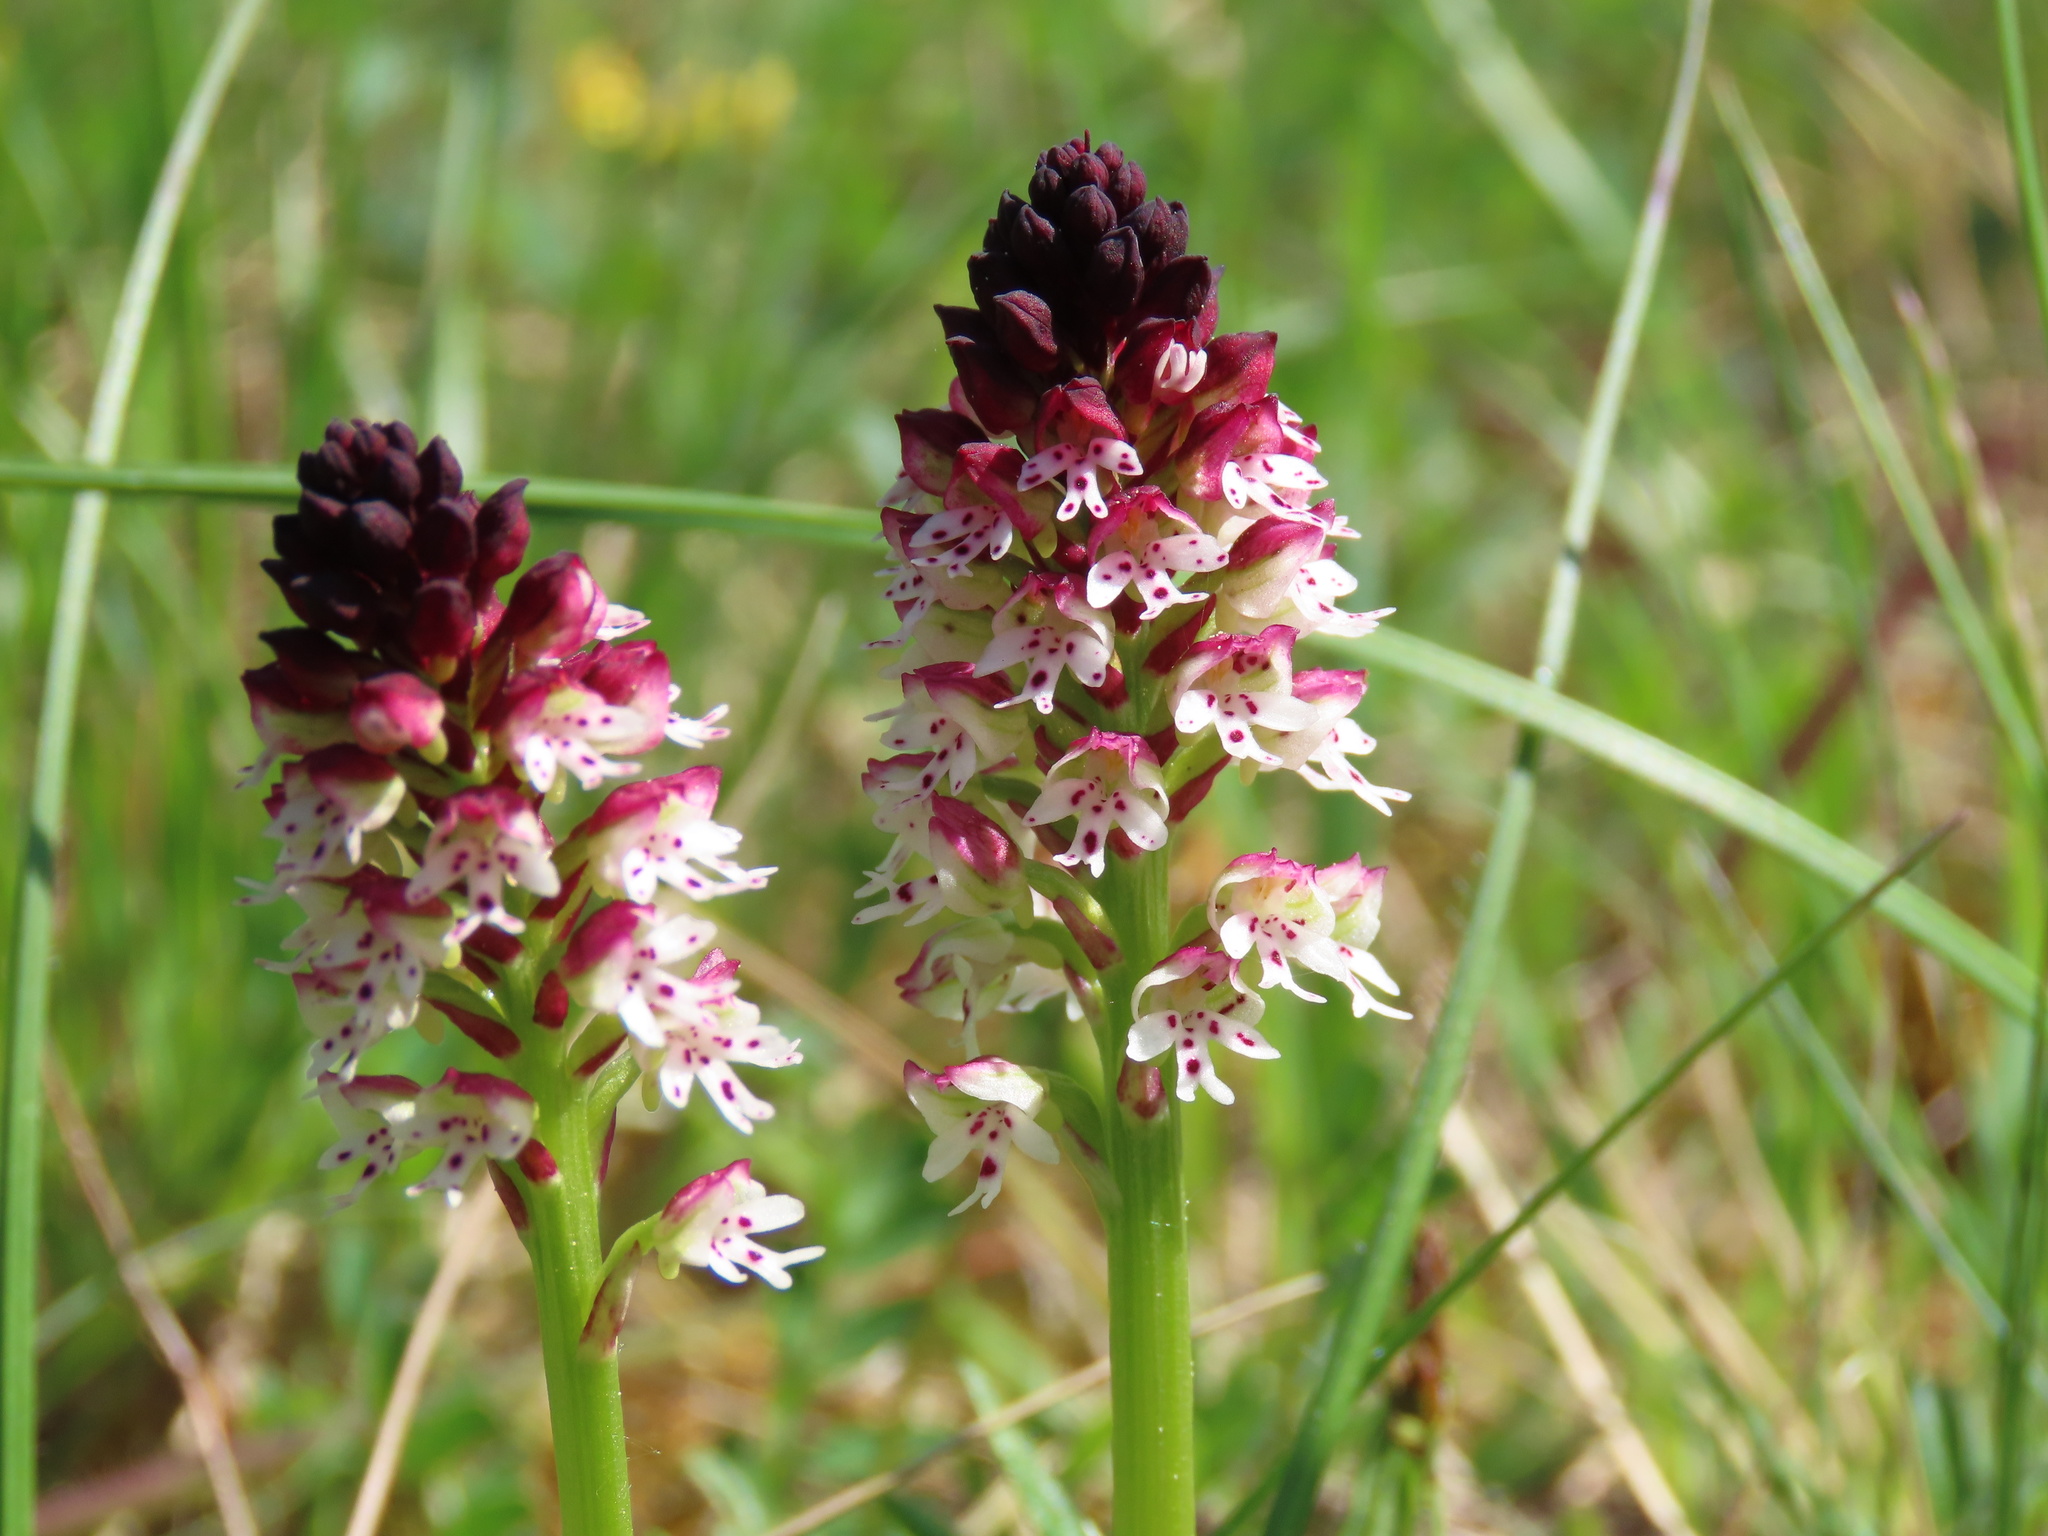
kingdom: Plantae
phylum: Tracheophyta
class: Liliopsida
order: Asparagales
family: Orchidaceae
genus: Neotinea
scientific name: Neotinea ustulata
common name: Burnt orchid
